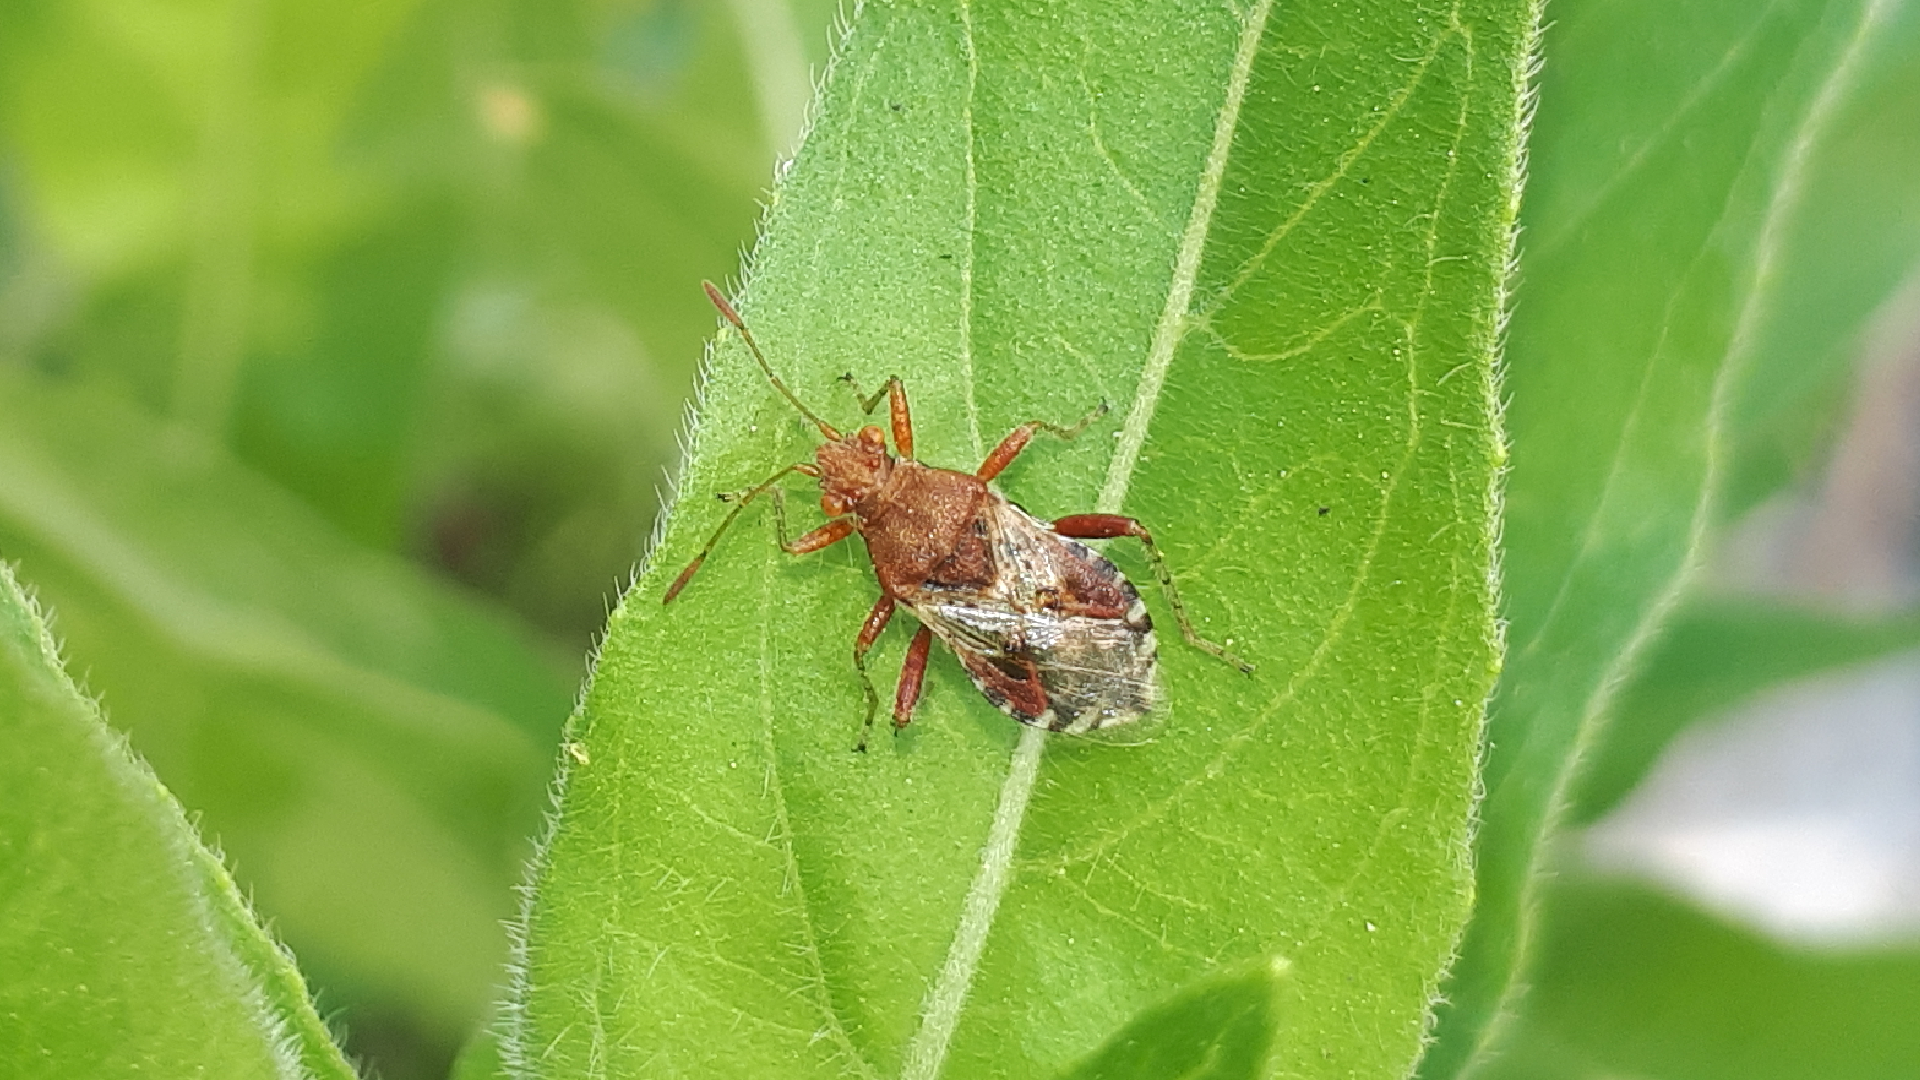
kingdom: Animalia
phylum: Arthropoda
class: Insecta
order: Hemiptera
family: Rhopalidae
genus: Rhopalus
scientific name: Rhopalus subrufus
